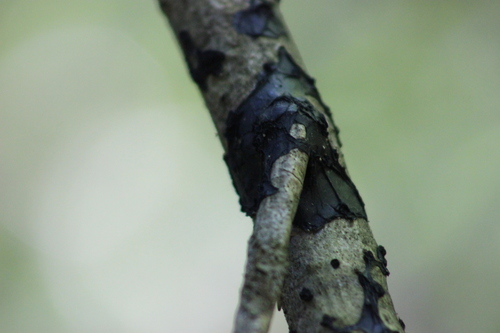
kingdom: Fungi
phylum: Basidiomycota
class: Agaricomycetes
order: Auriculariales
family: Auriculariaceae
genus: Exidia
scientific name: Exidia
